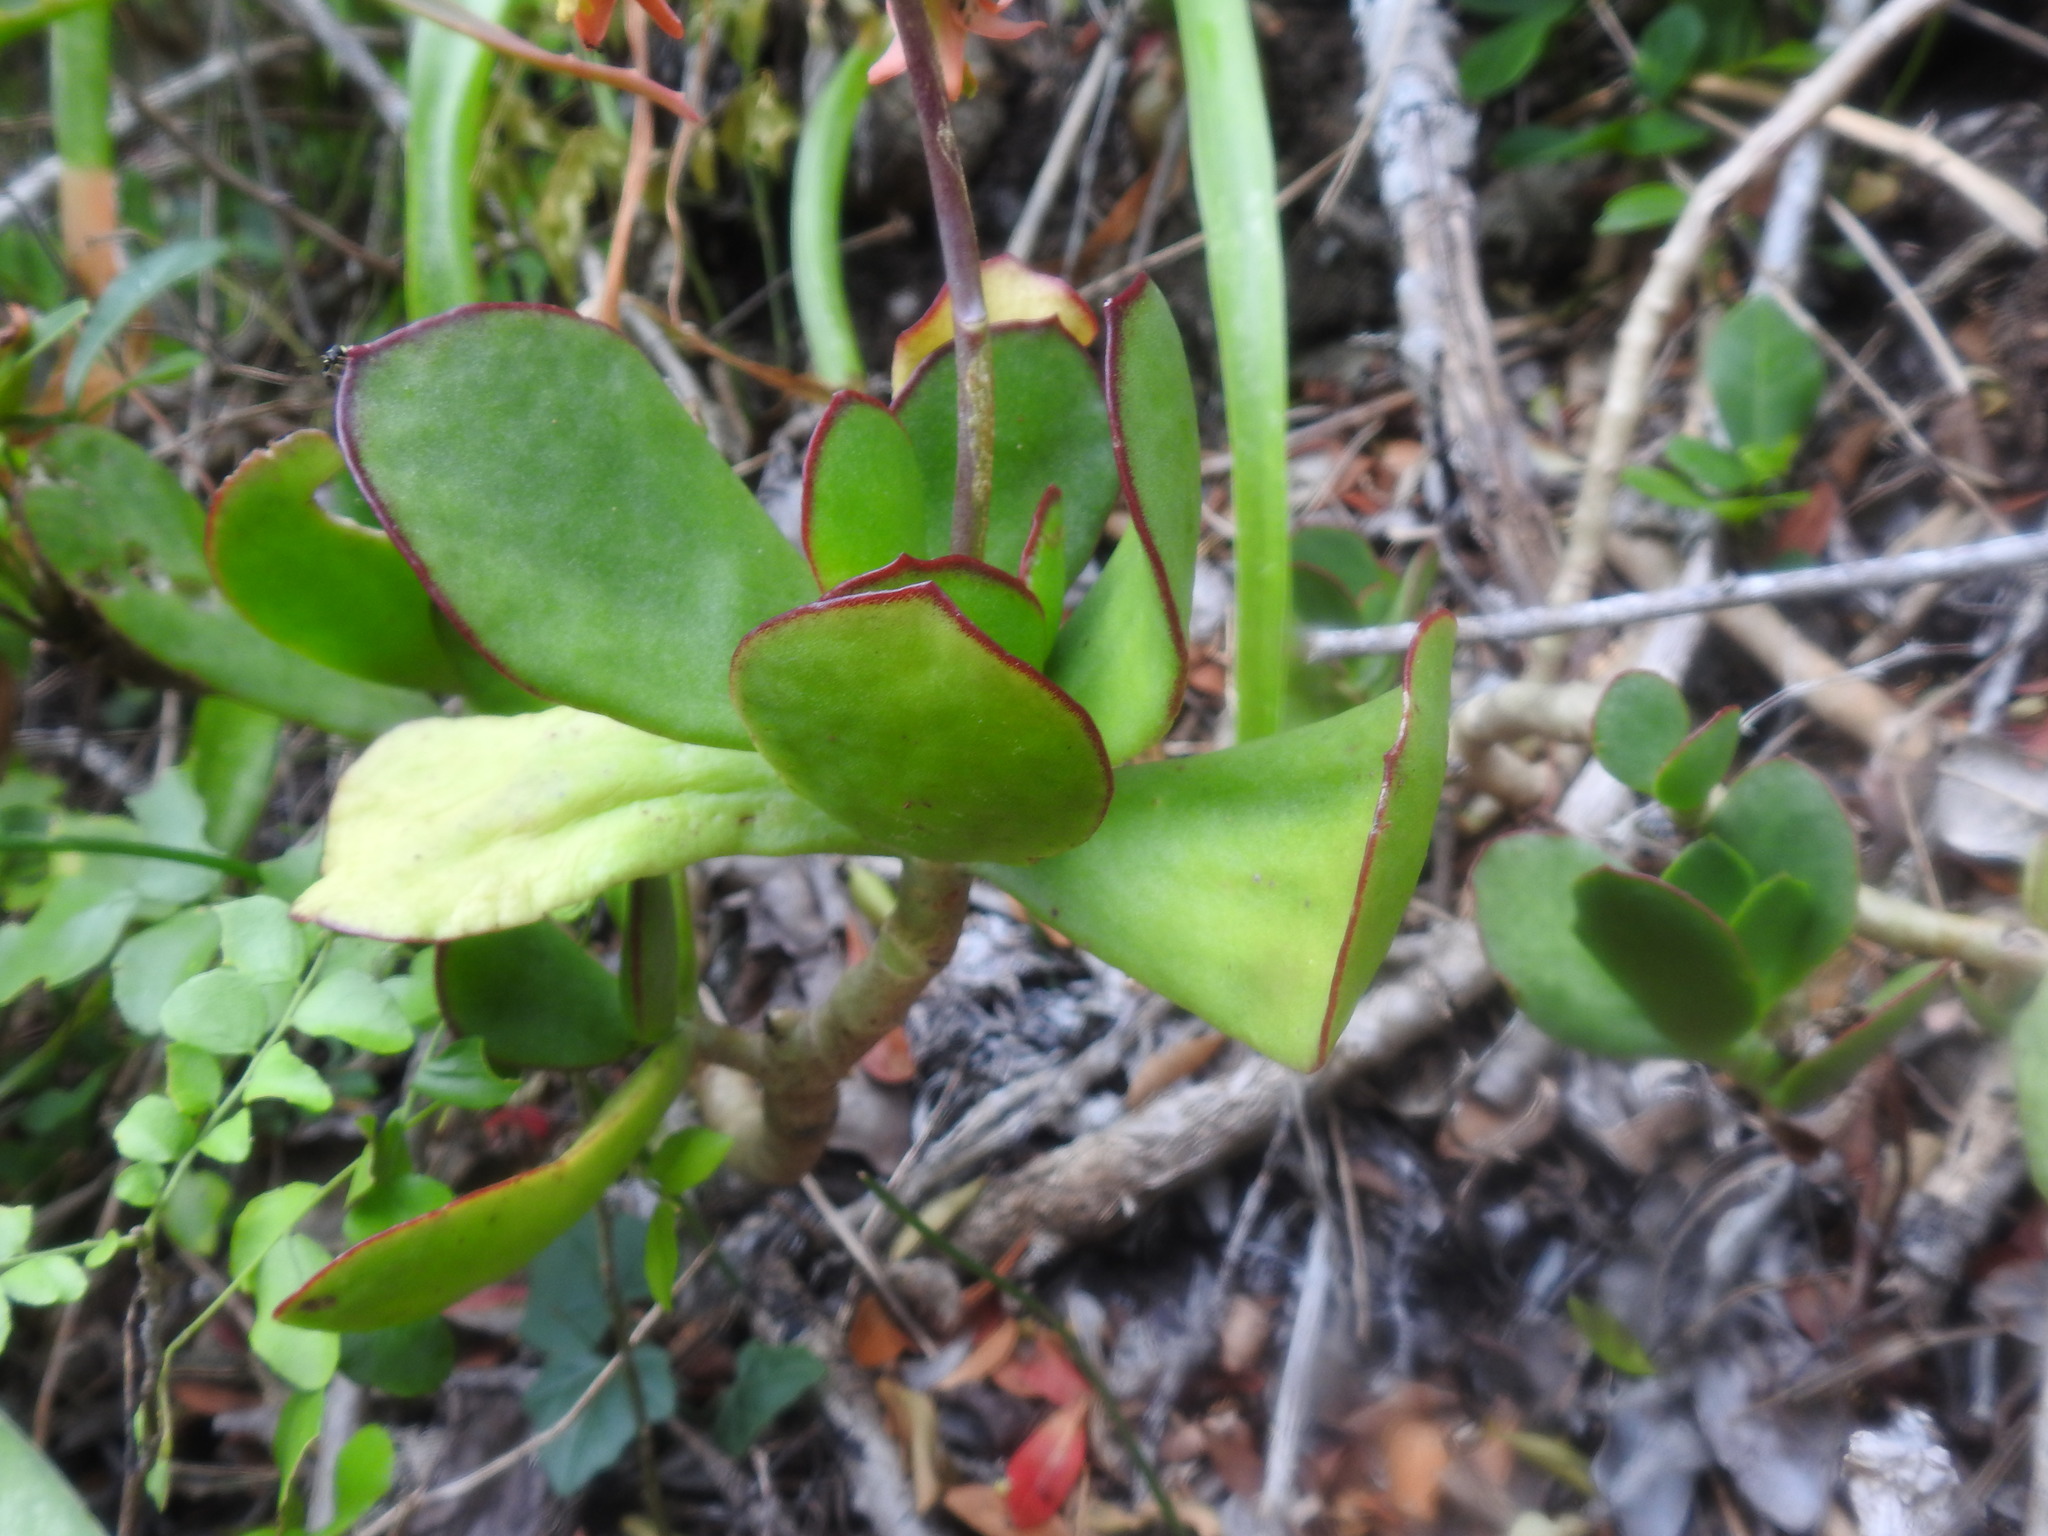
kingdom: Plantae
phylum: Tracheophyta
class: Magnoliopsida
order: Saxifragales
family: Crassulaceae
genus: Cotyledon
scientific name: Cotyledon orbiculata
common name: Pig's ear
